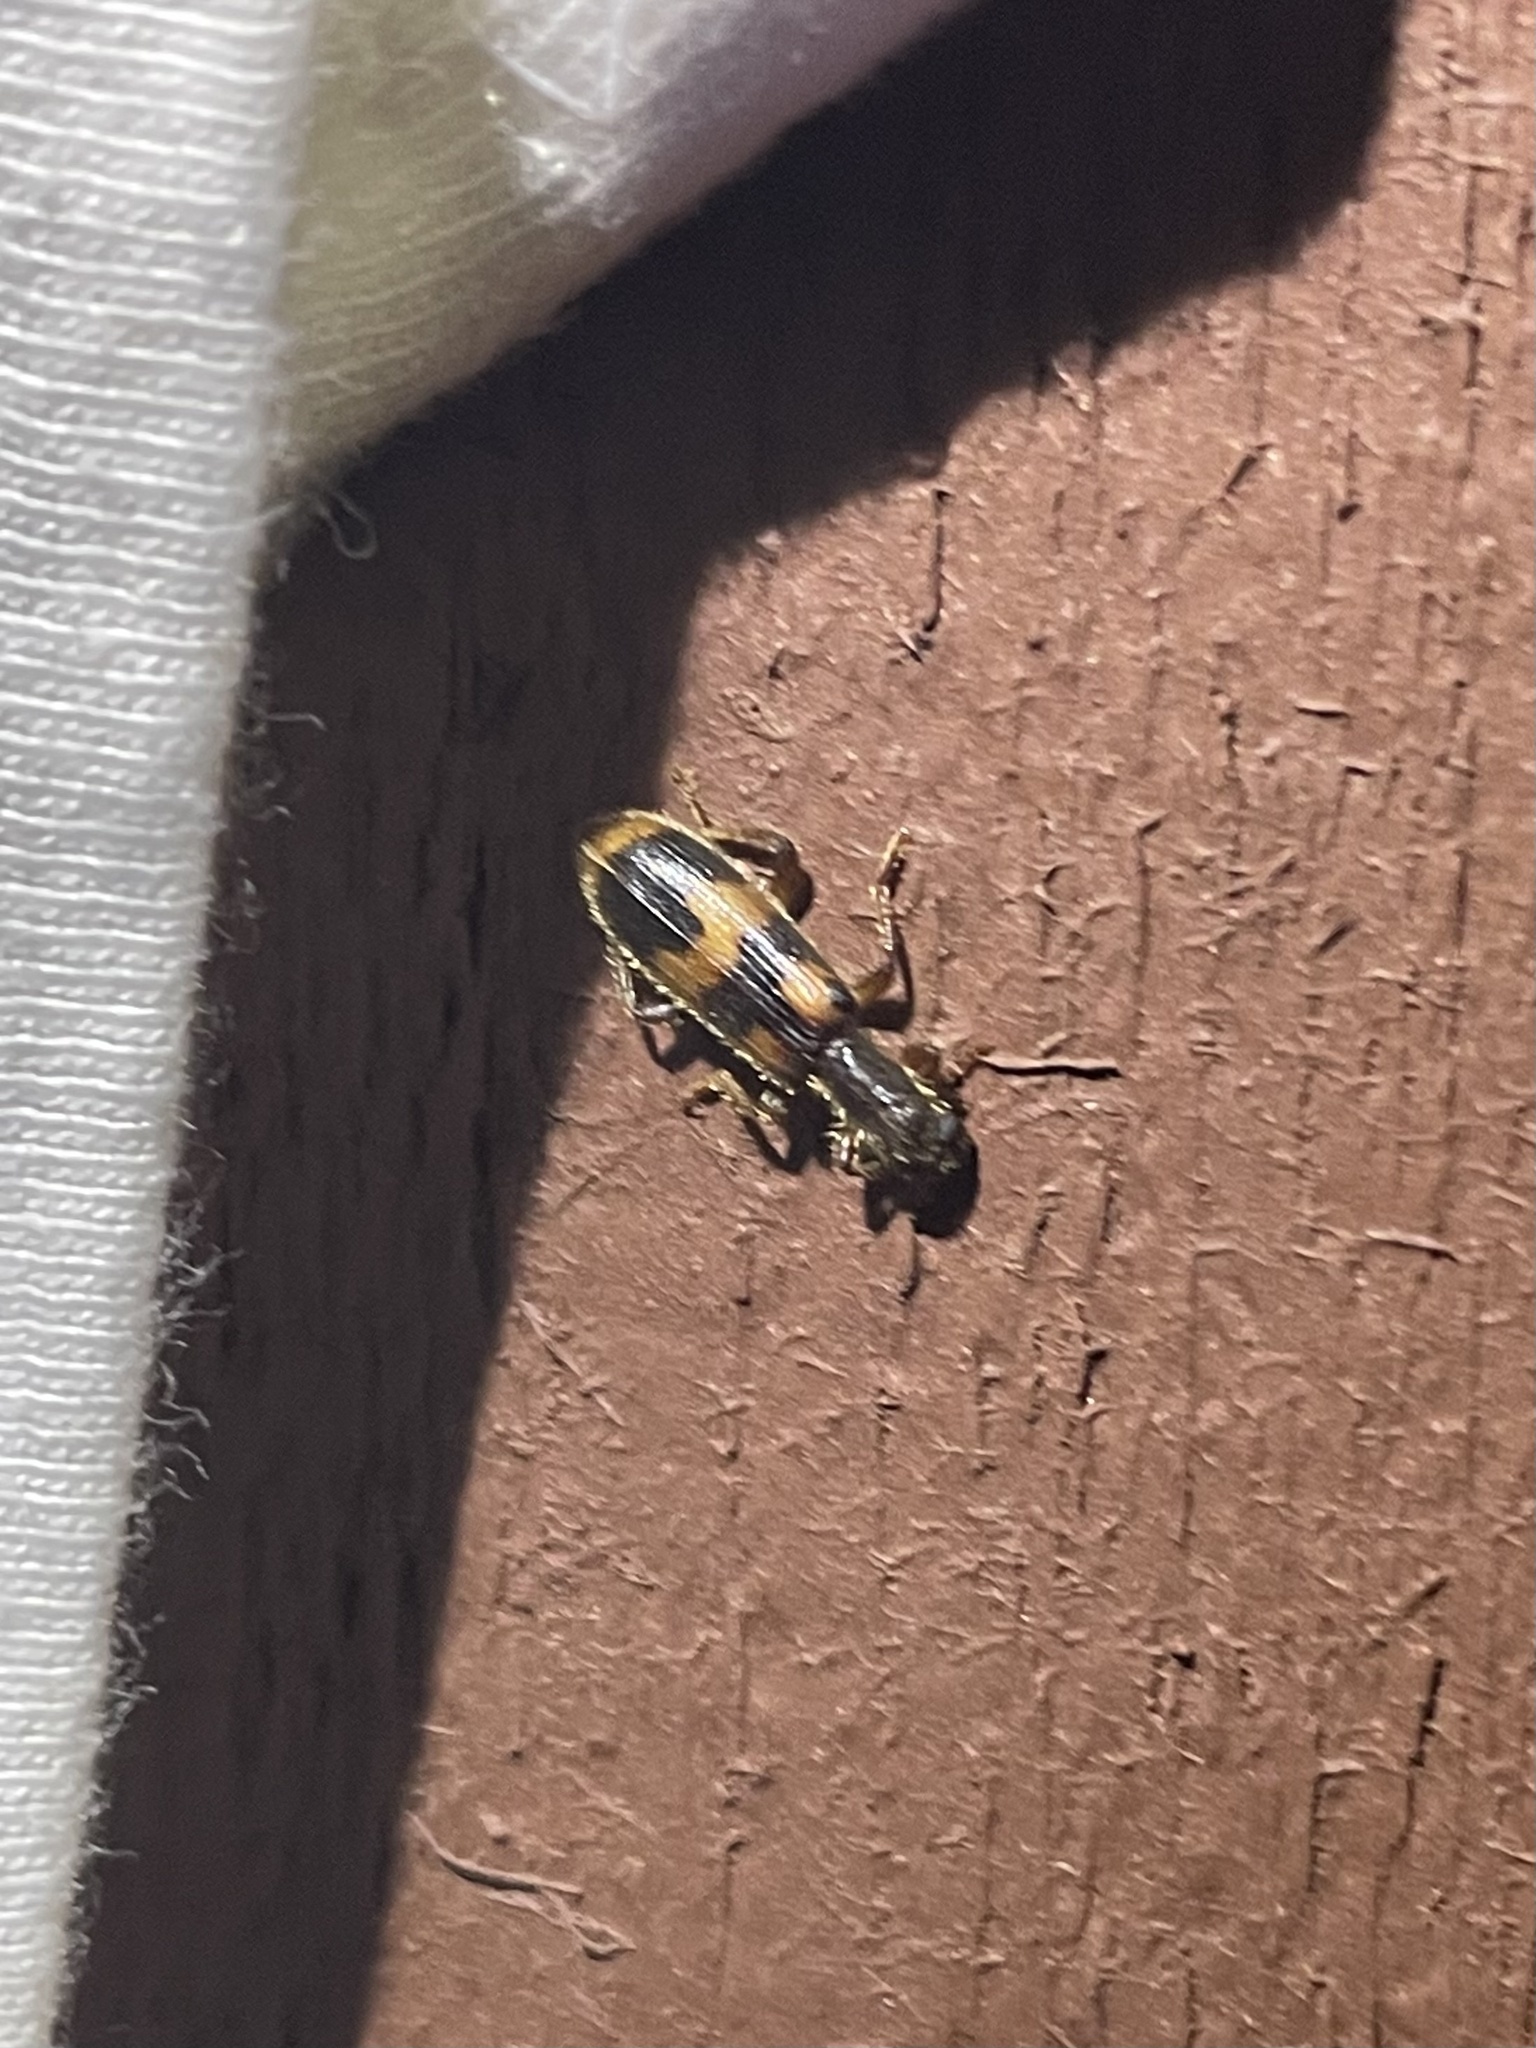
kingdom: Animalia
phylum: Arthropoda
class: Insecta
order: Coleoptera
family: Cleridae
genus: Cymatodera
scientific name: Cymatodera sirpata
